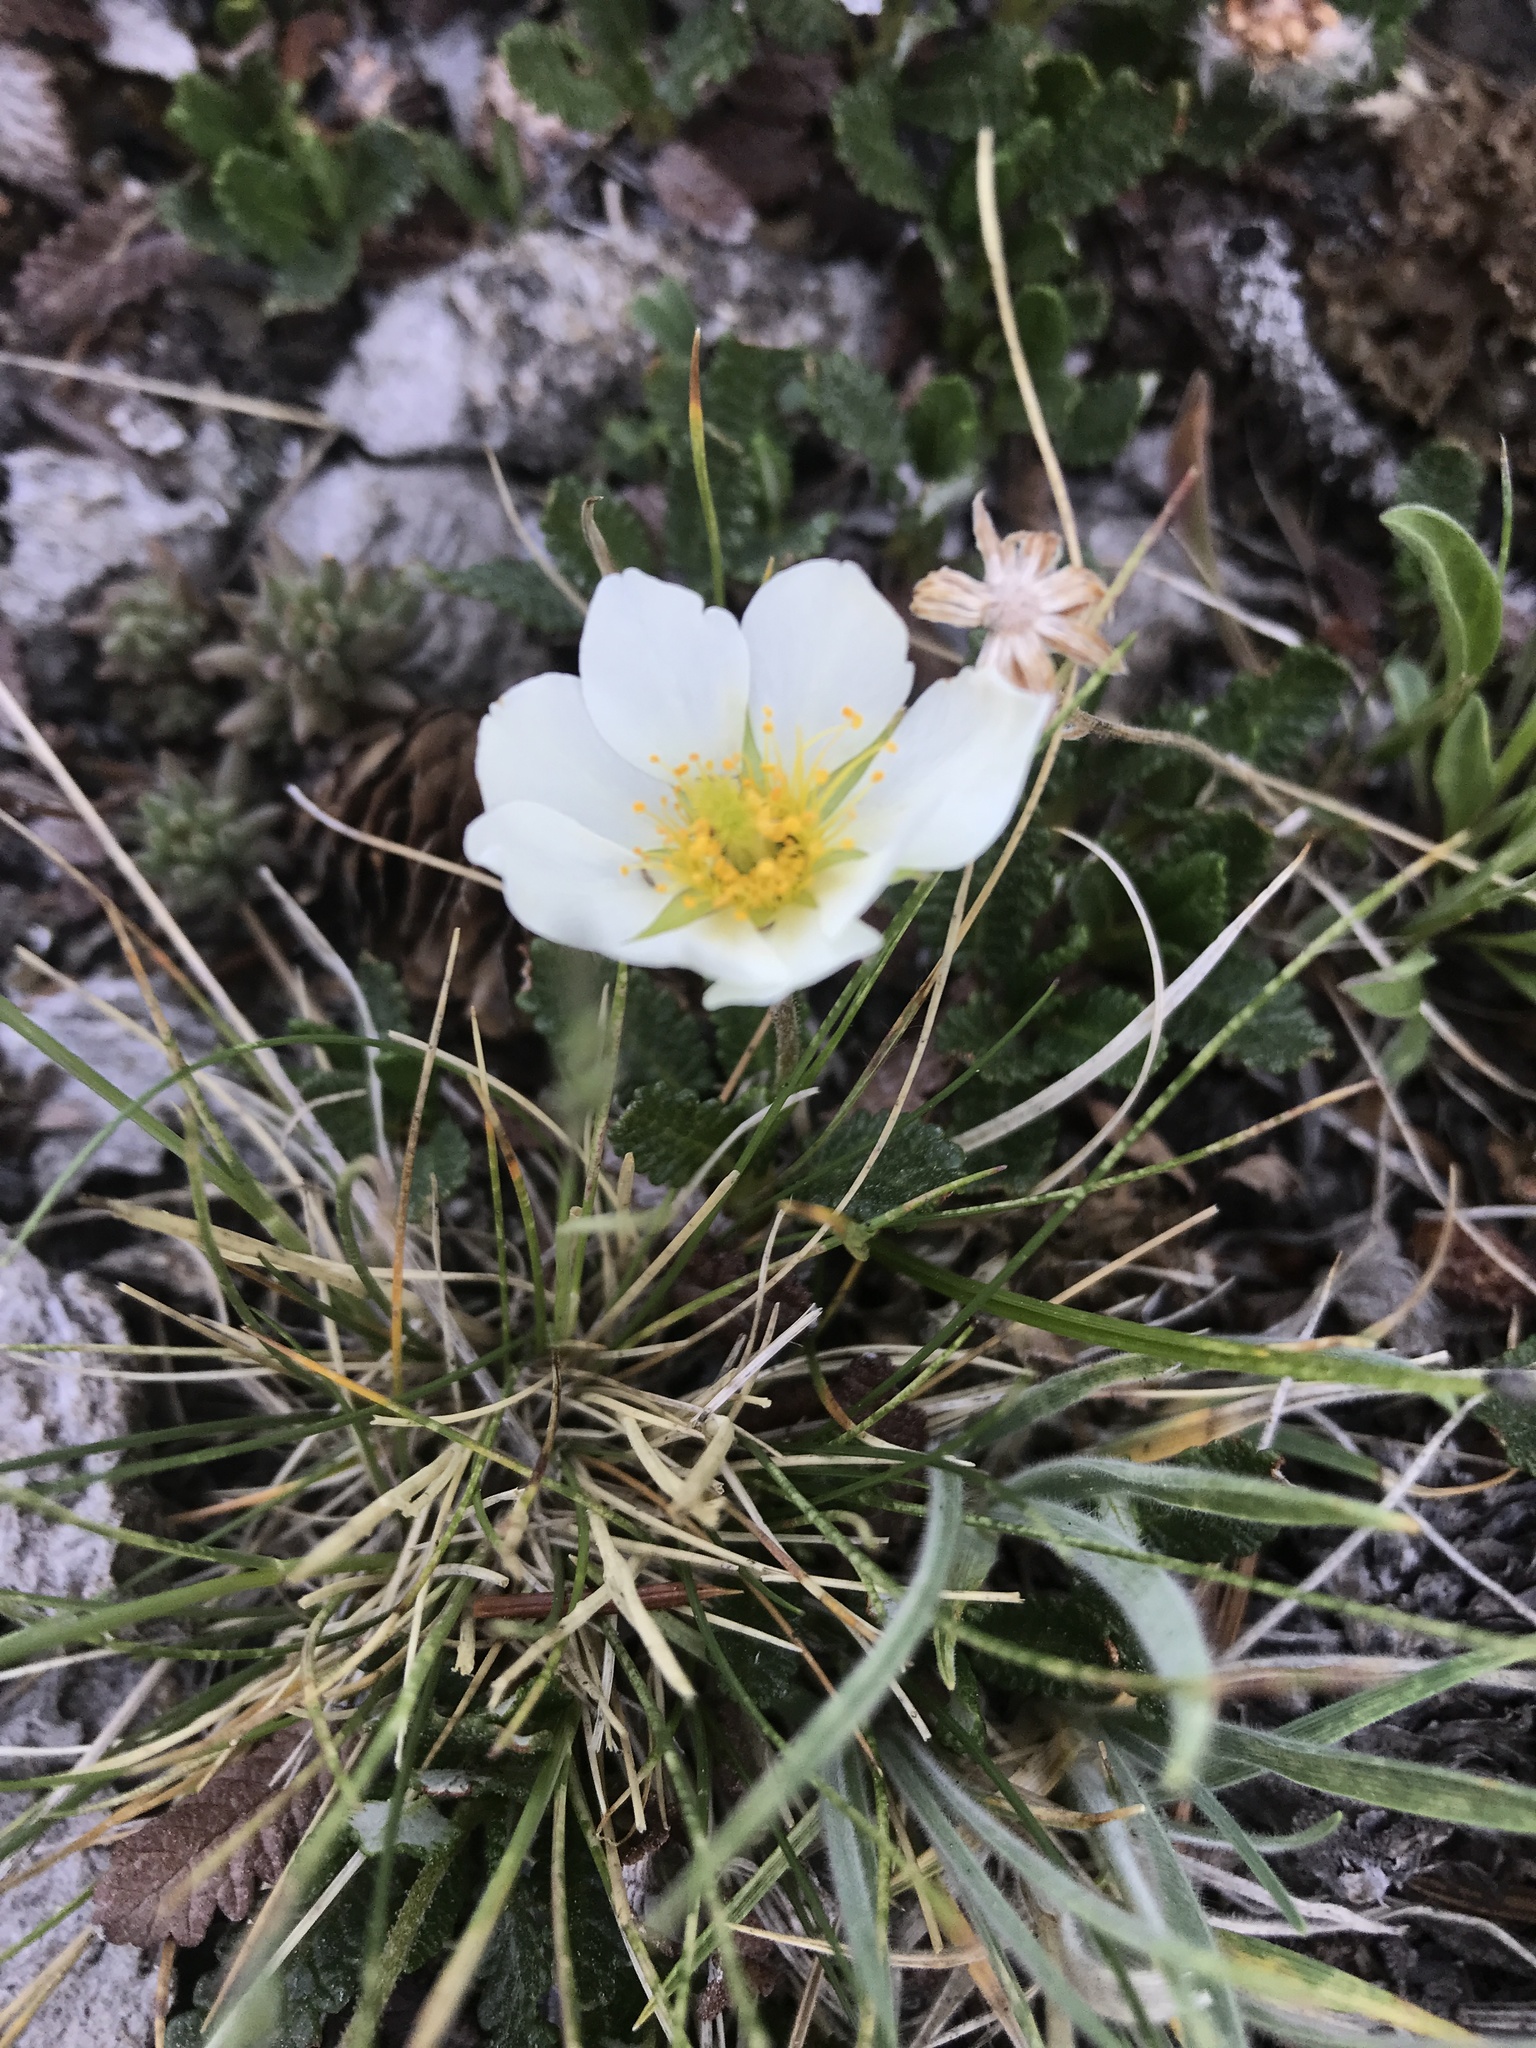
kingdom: Plantae
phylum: Tracheophyta
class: Magnoliopsida
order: Rosales
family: Rosaceae
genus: Dryas
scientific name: Dryas octopetala
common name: Eight-petal mountain-avens
